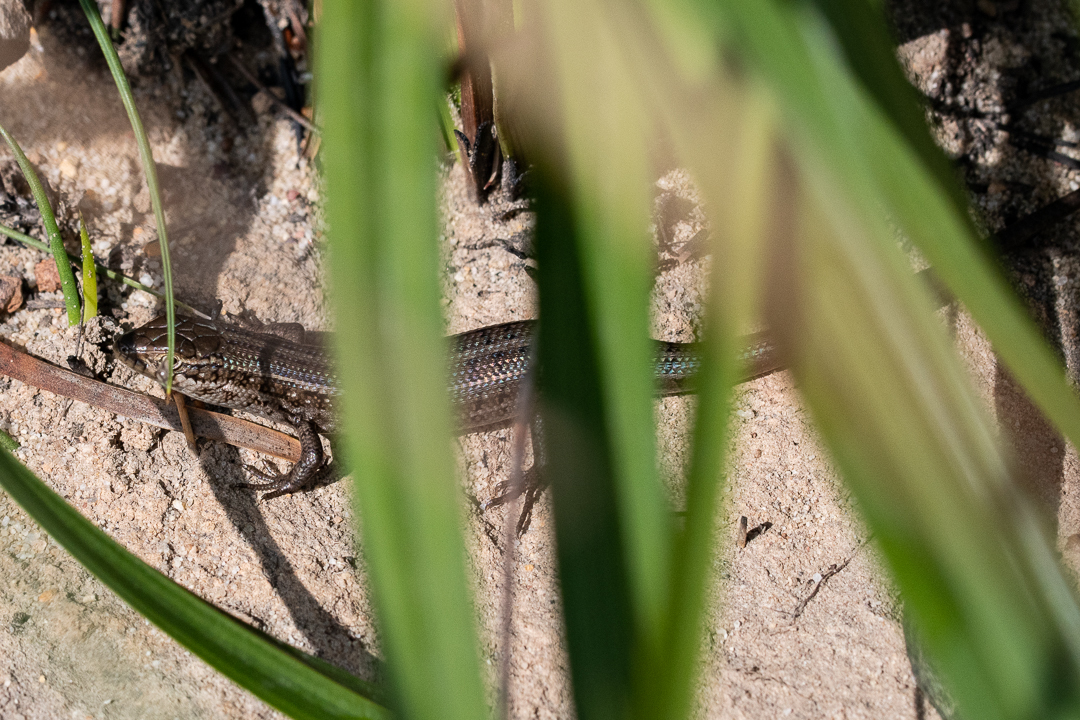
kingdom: Animalia
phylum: Chordata
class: Squamata
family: Scincidae
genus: Trachylepis
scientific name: Trachylepis capensis
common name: Cape skink
